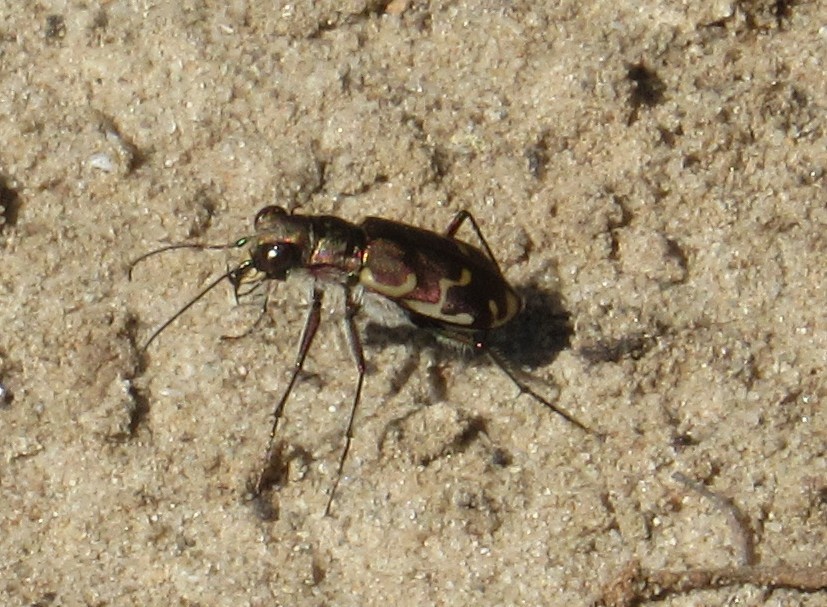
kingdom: Animalia
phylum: Arthropoda
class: Insecta
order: Coleoptera
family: Carabidae
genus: Cicindela
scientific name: Cicindela repanda
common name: Bronzed tiger beetle
